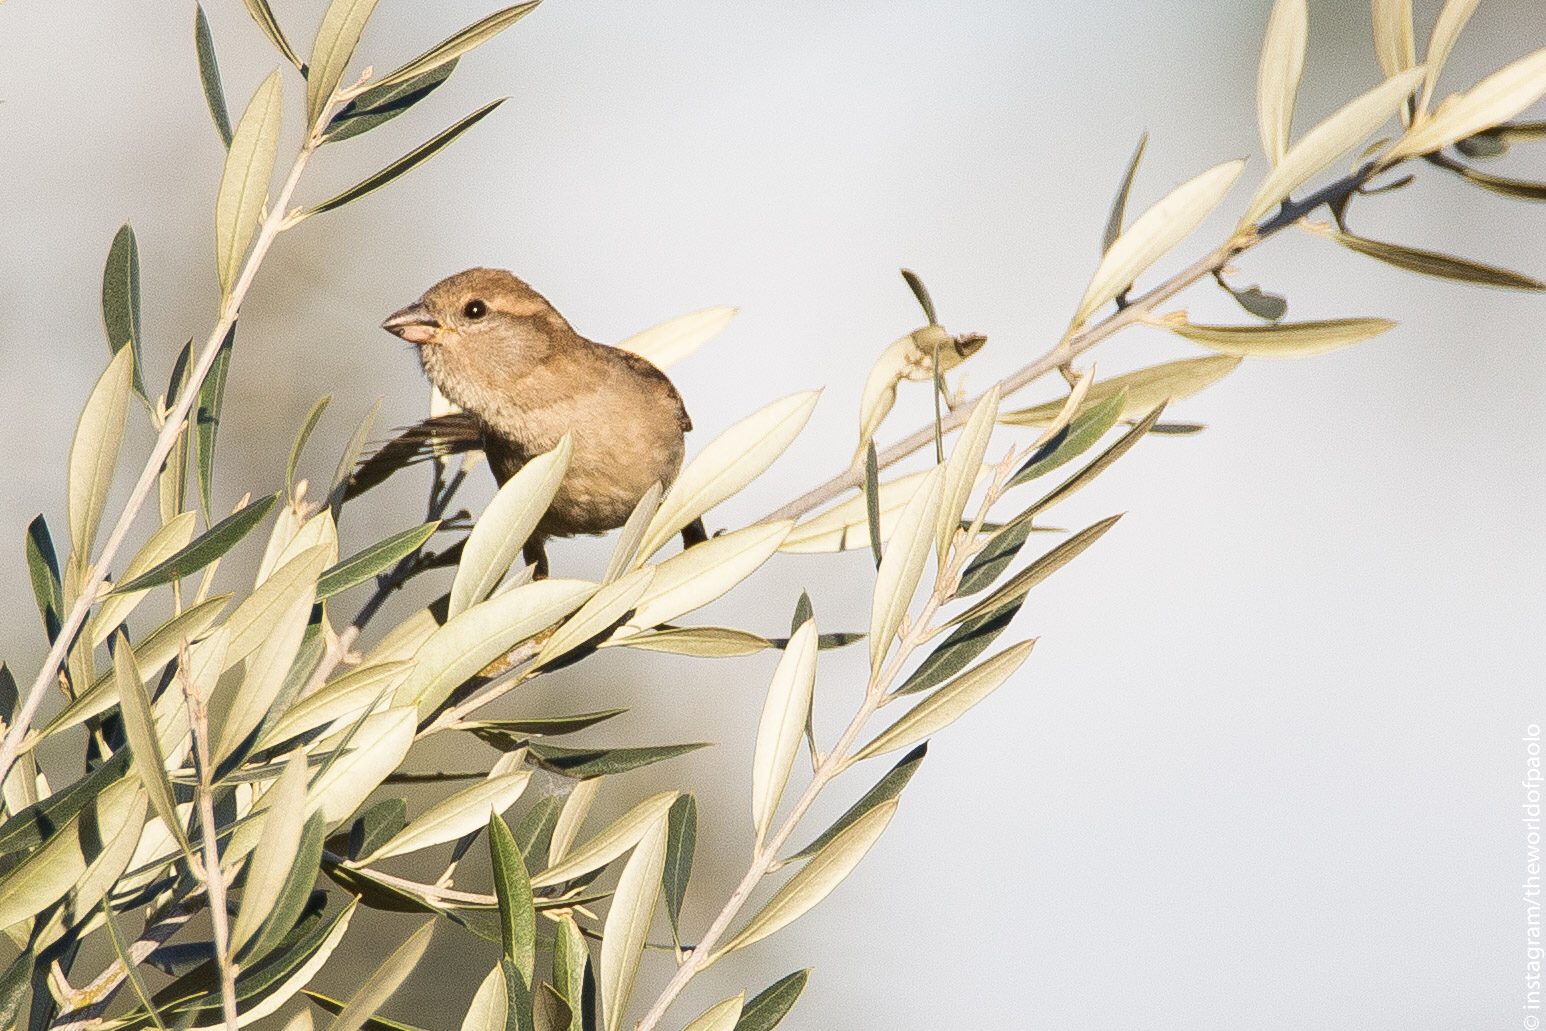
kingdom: Animalia
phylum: Chordata
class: Aves
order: Passeriformes
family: Passeridae
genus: Passer
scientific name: Passer italiae
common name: Italian sparrow
